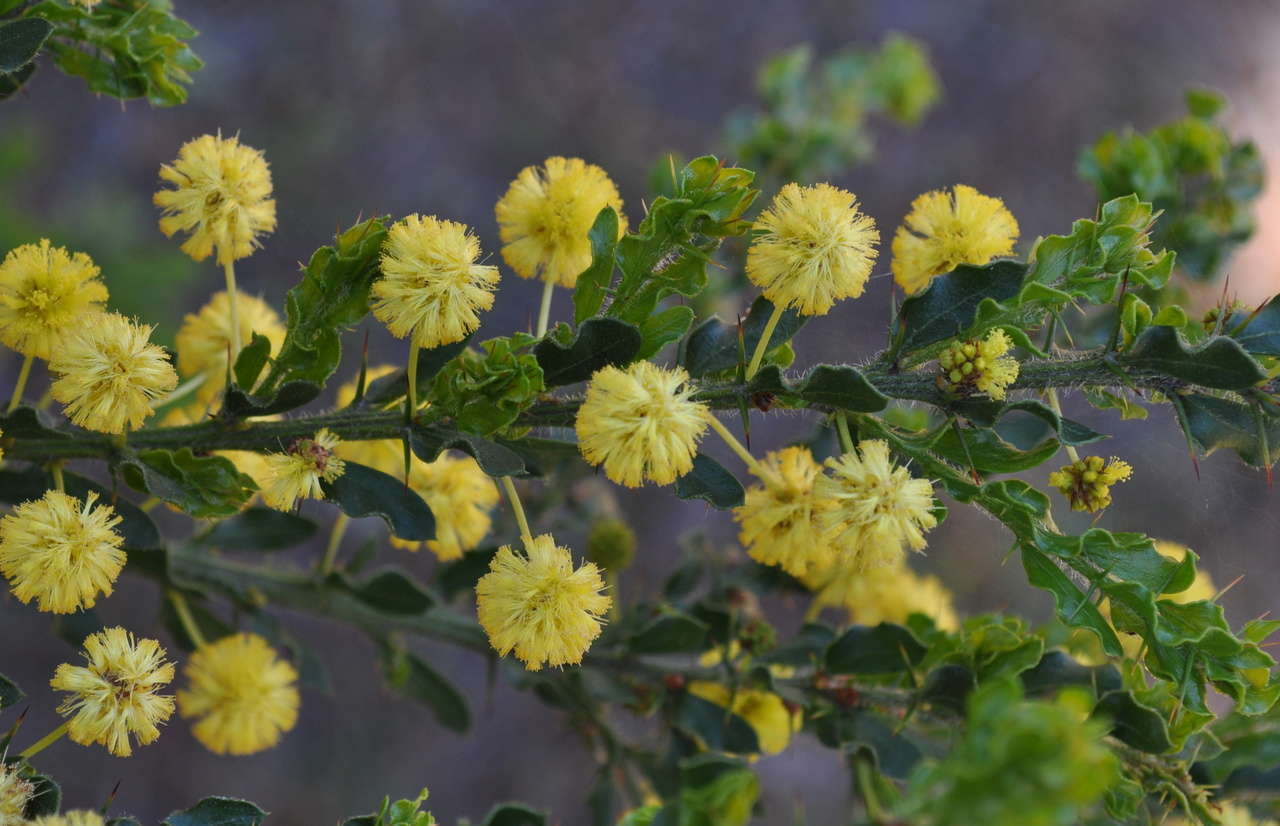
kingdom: Plantae
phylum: Tracheophyta
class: Magnoliopsida
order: Fabales
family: Fabaceae
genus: Acacia
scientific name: Acacia paradoxa
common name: Paradox acacia
